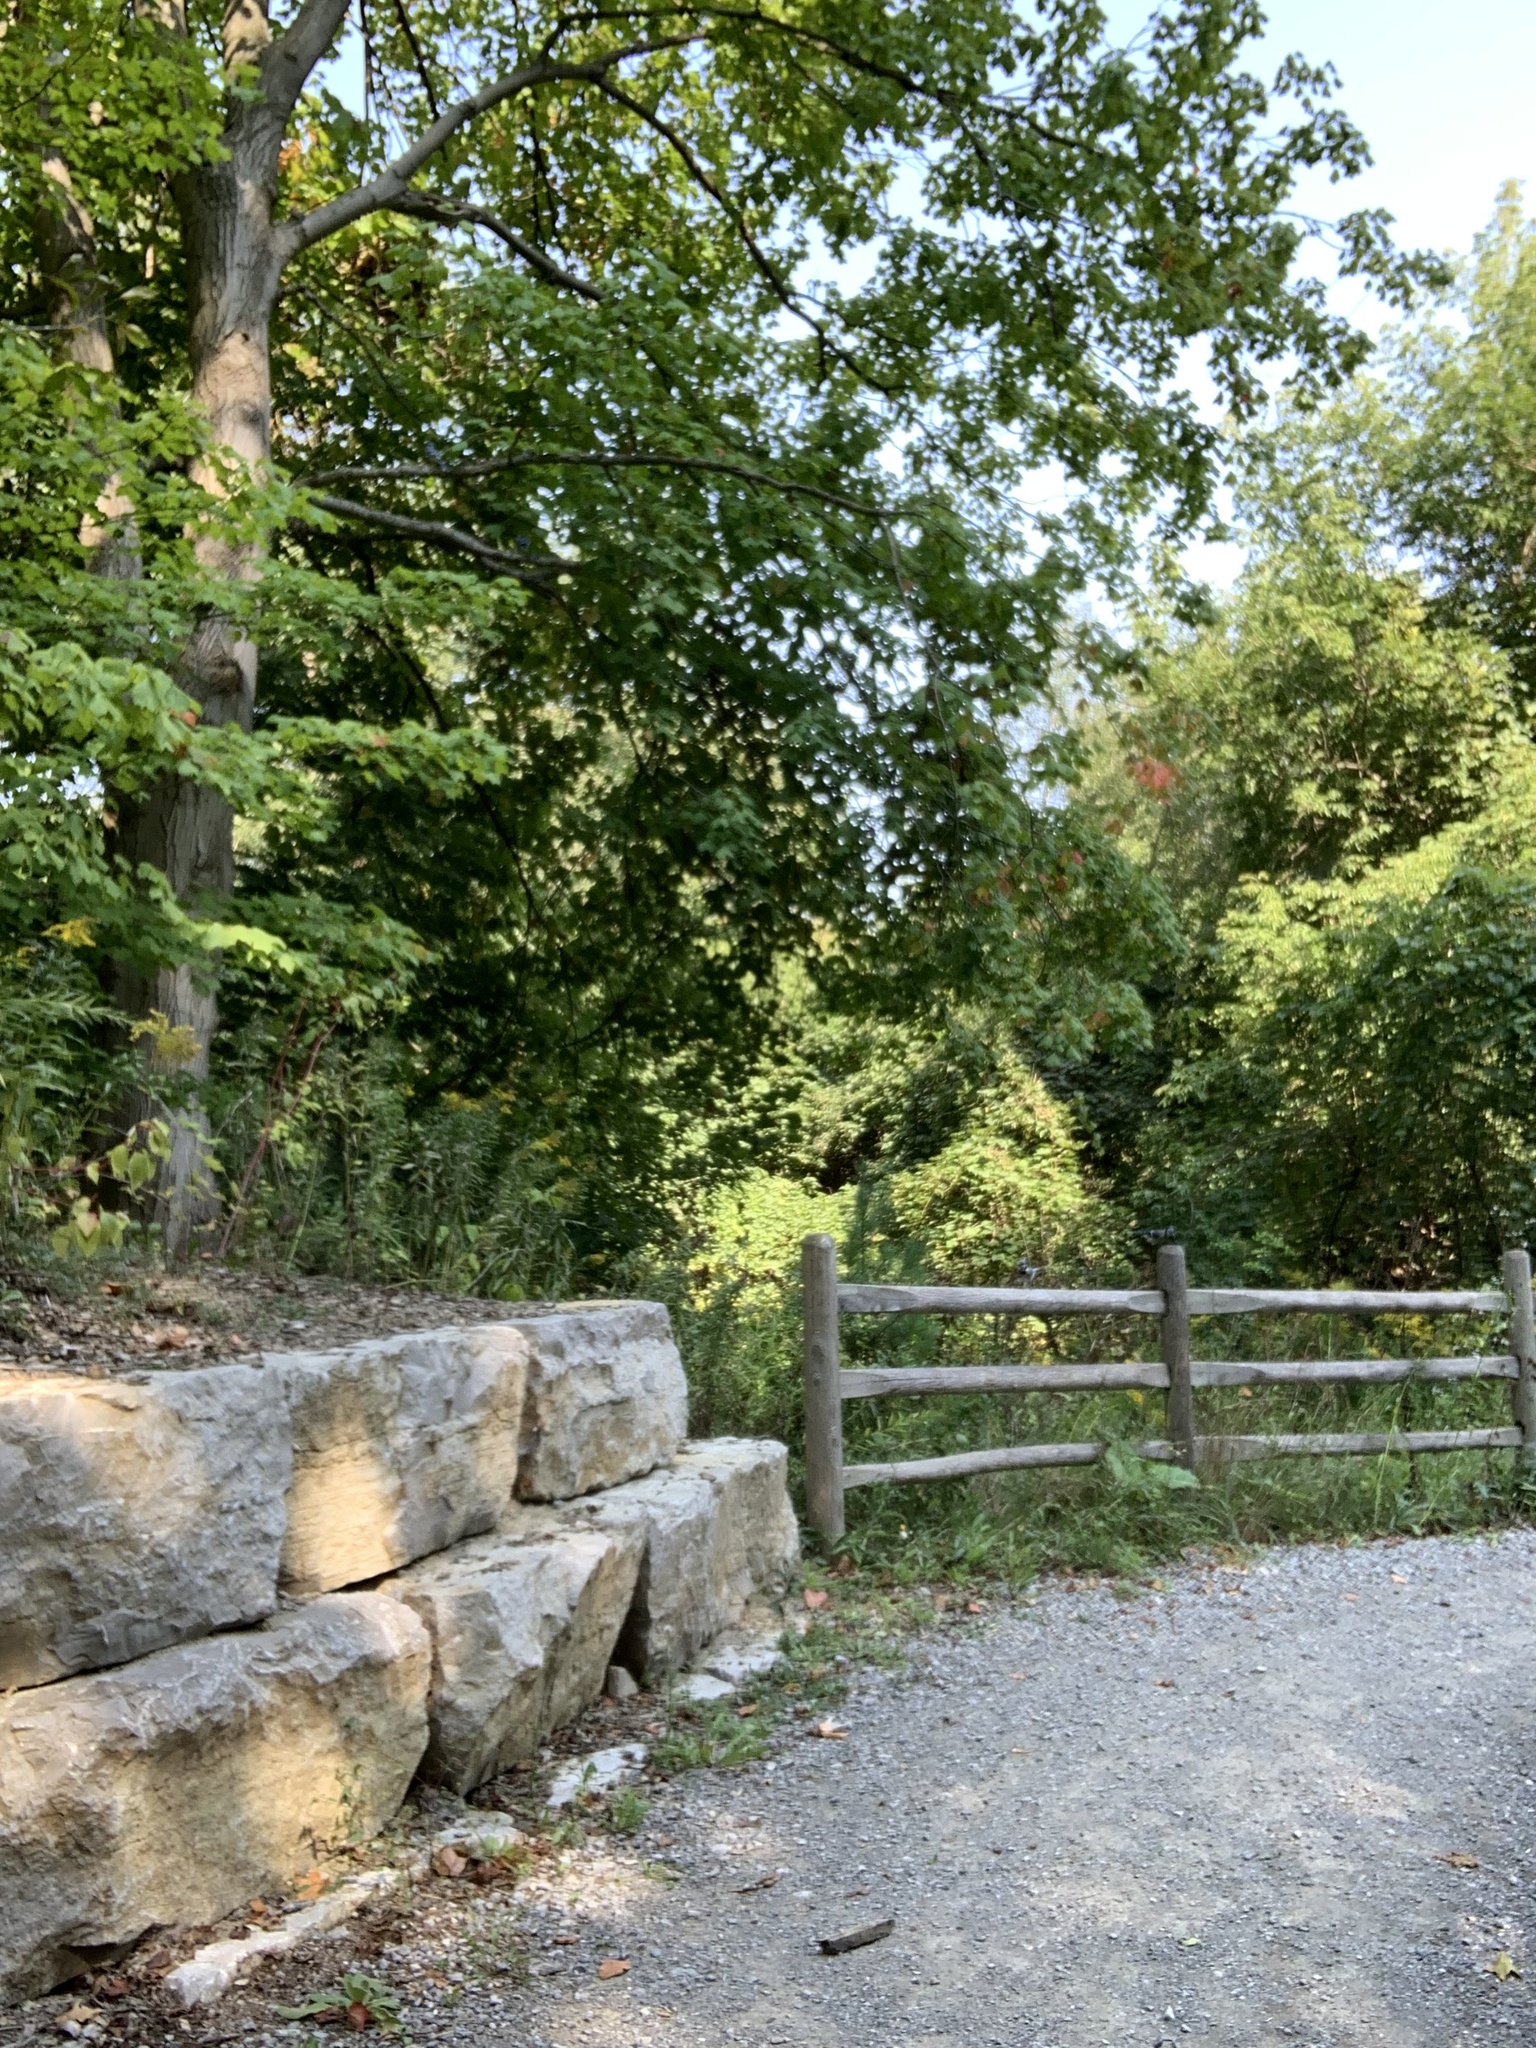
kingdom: Animalia
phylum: Chordata
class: Aves
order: Passeriformes
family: Corvidae
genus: Cyanocitta
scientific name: Cyanocitta cristata
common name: Blue jay
